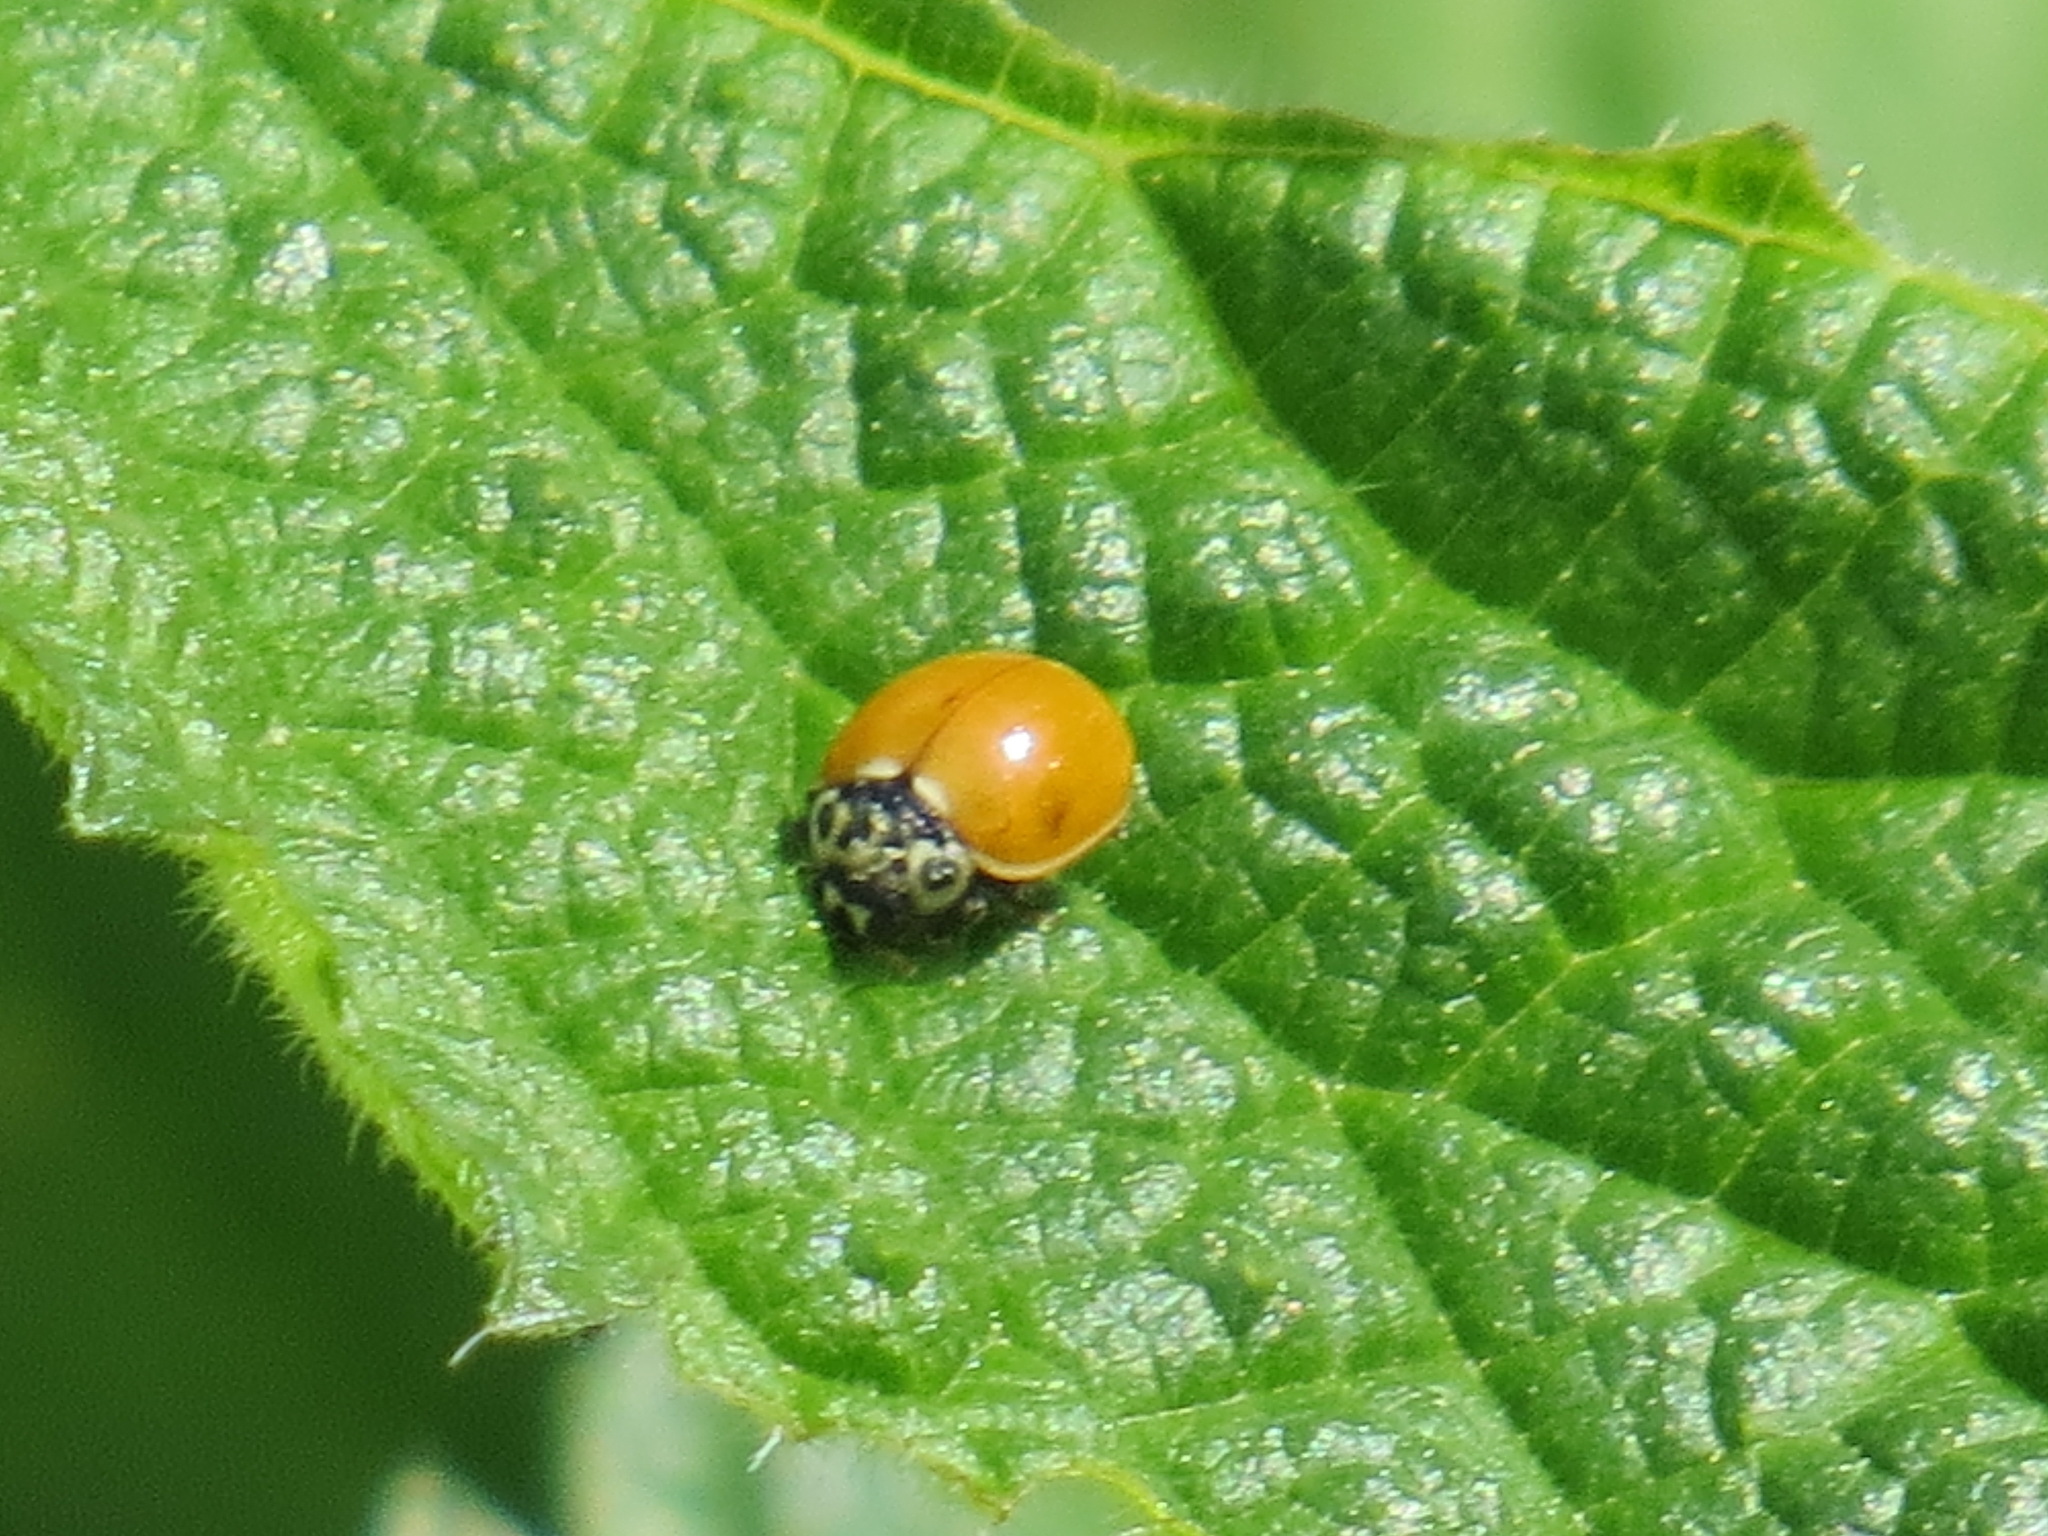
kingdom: Animalia
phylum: Arthropoda
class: Insecta
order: Coleoptera
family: Coccinellidae
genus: Cycloneda
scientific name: Cycloneda polita
